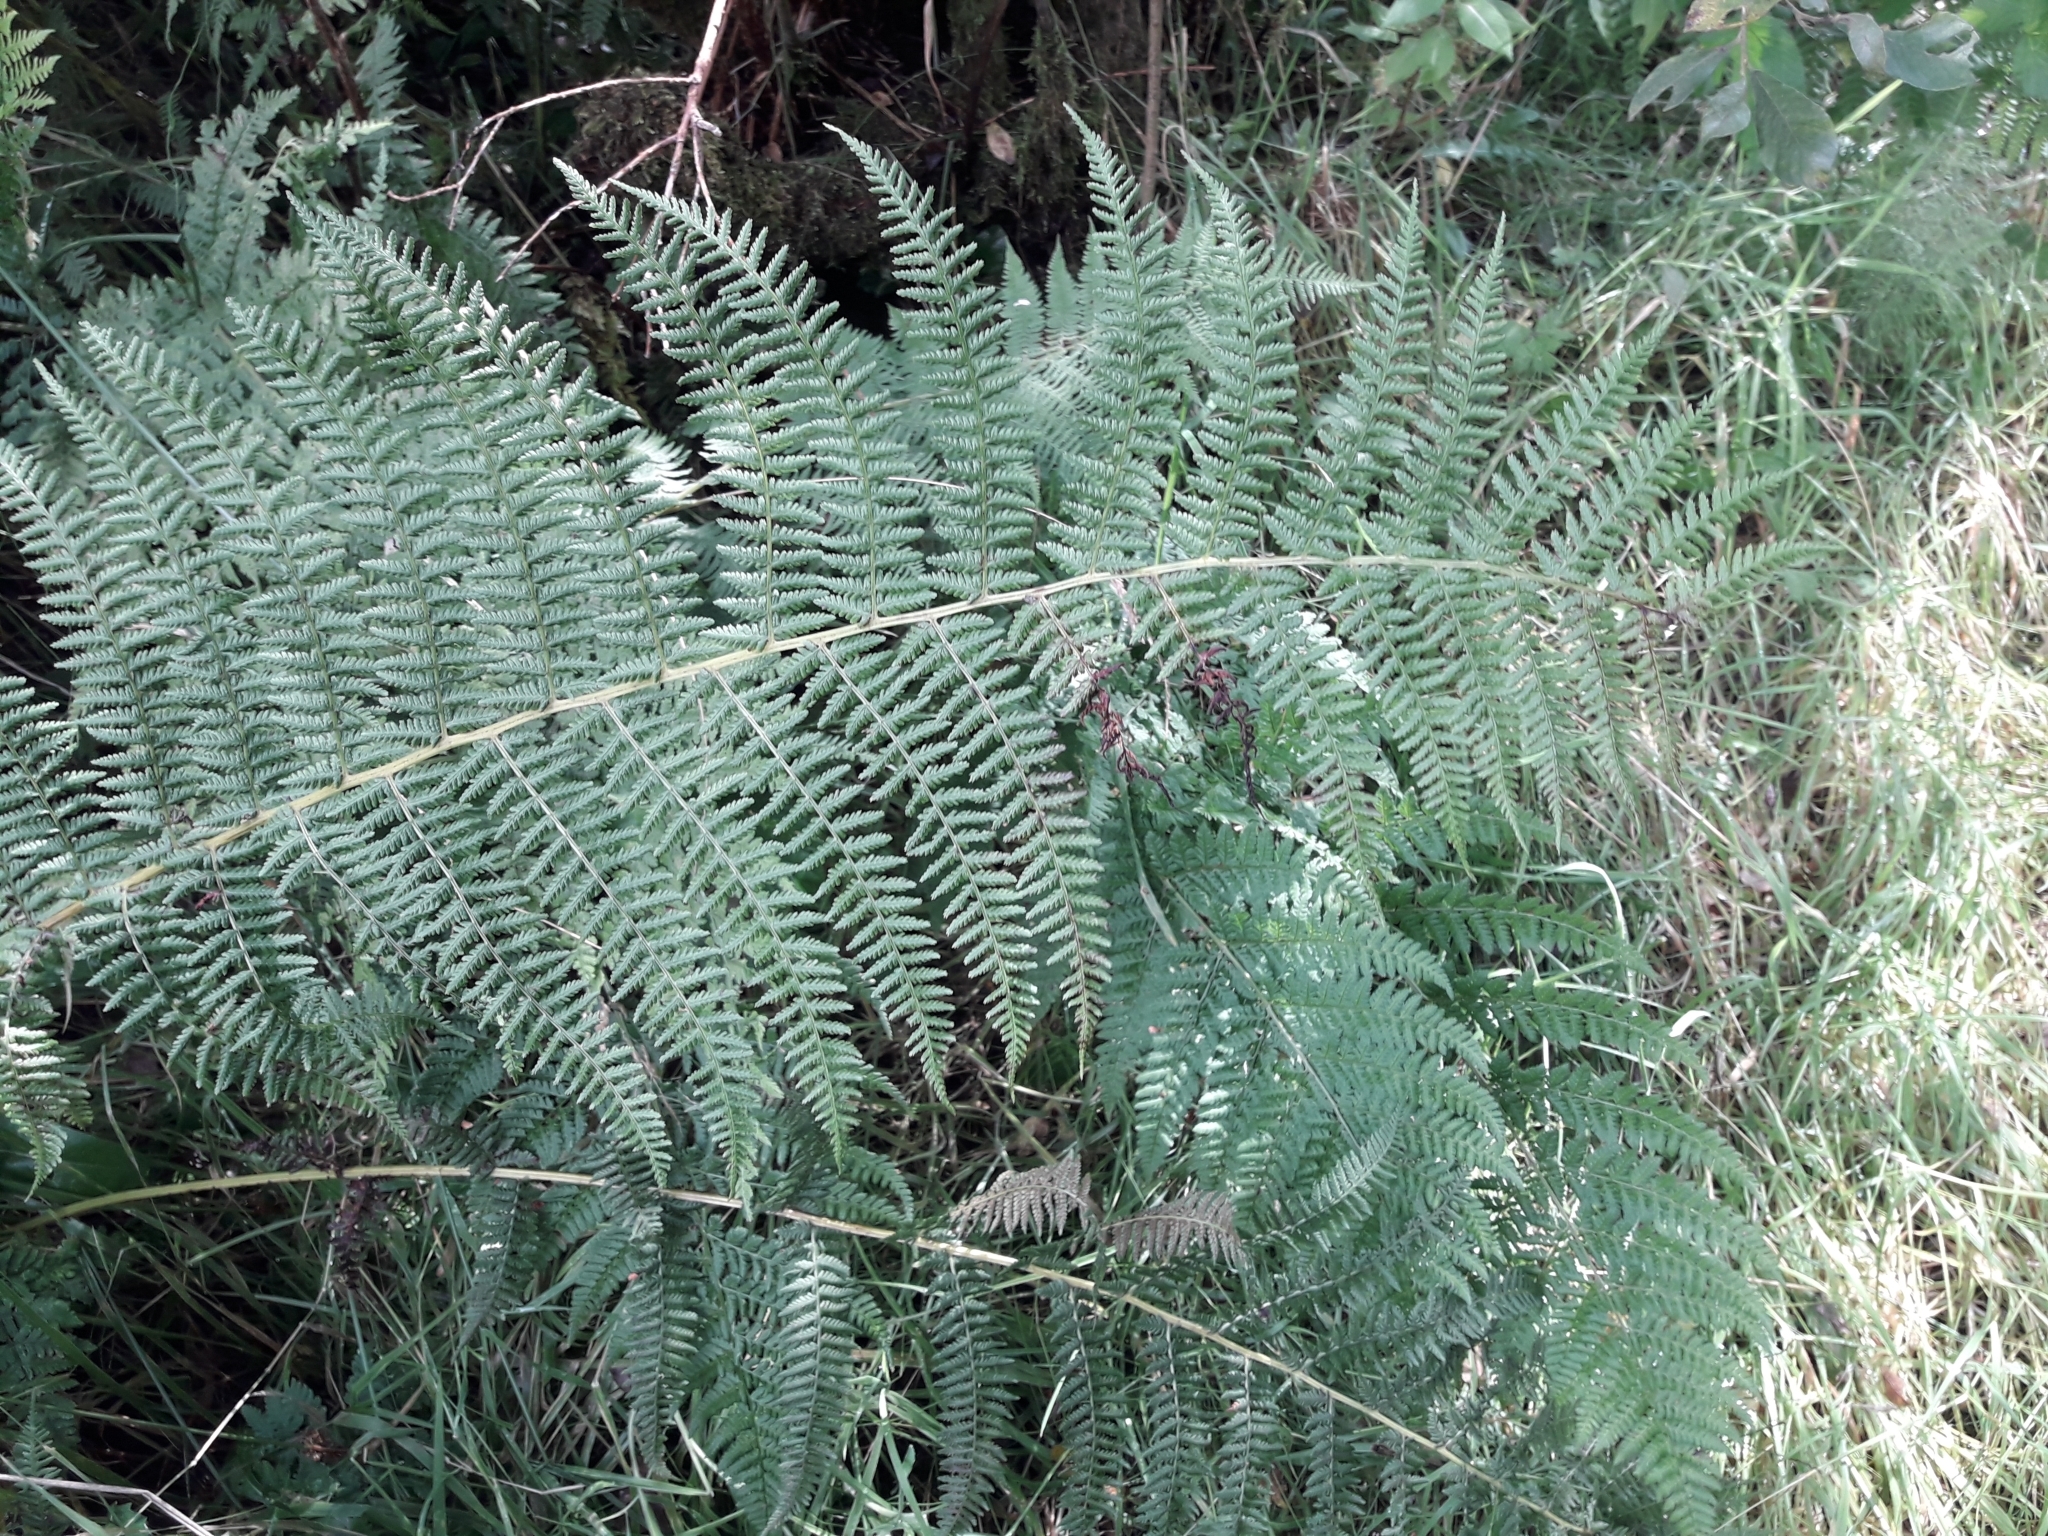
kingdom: Plantae
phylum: Tracheophyta
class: Polypodiopsida
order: Polypodiales
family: Athyriaceae
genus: Athyrium
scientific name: Athyrium filix-femina
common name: Lady fern
